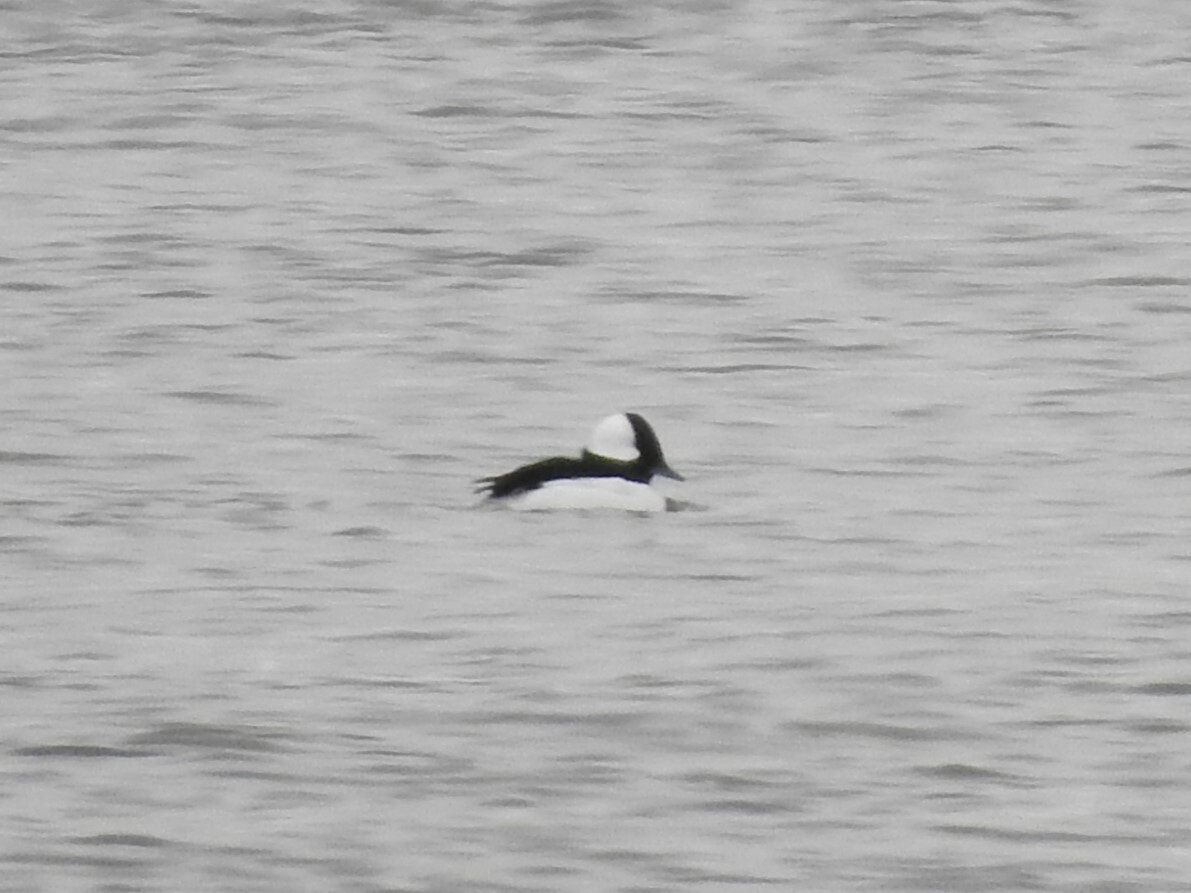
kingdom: Animalia
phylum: Chordata
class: Aves
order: Anseriformes
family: Anatidae
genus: Bucephala
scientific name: Bucephala albeola
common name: Bufflehead
